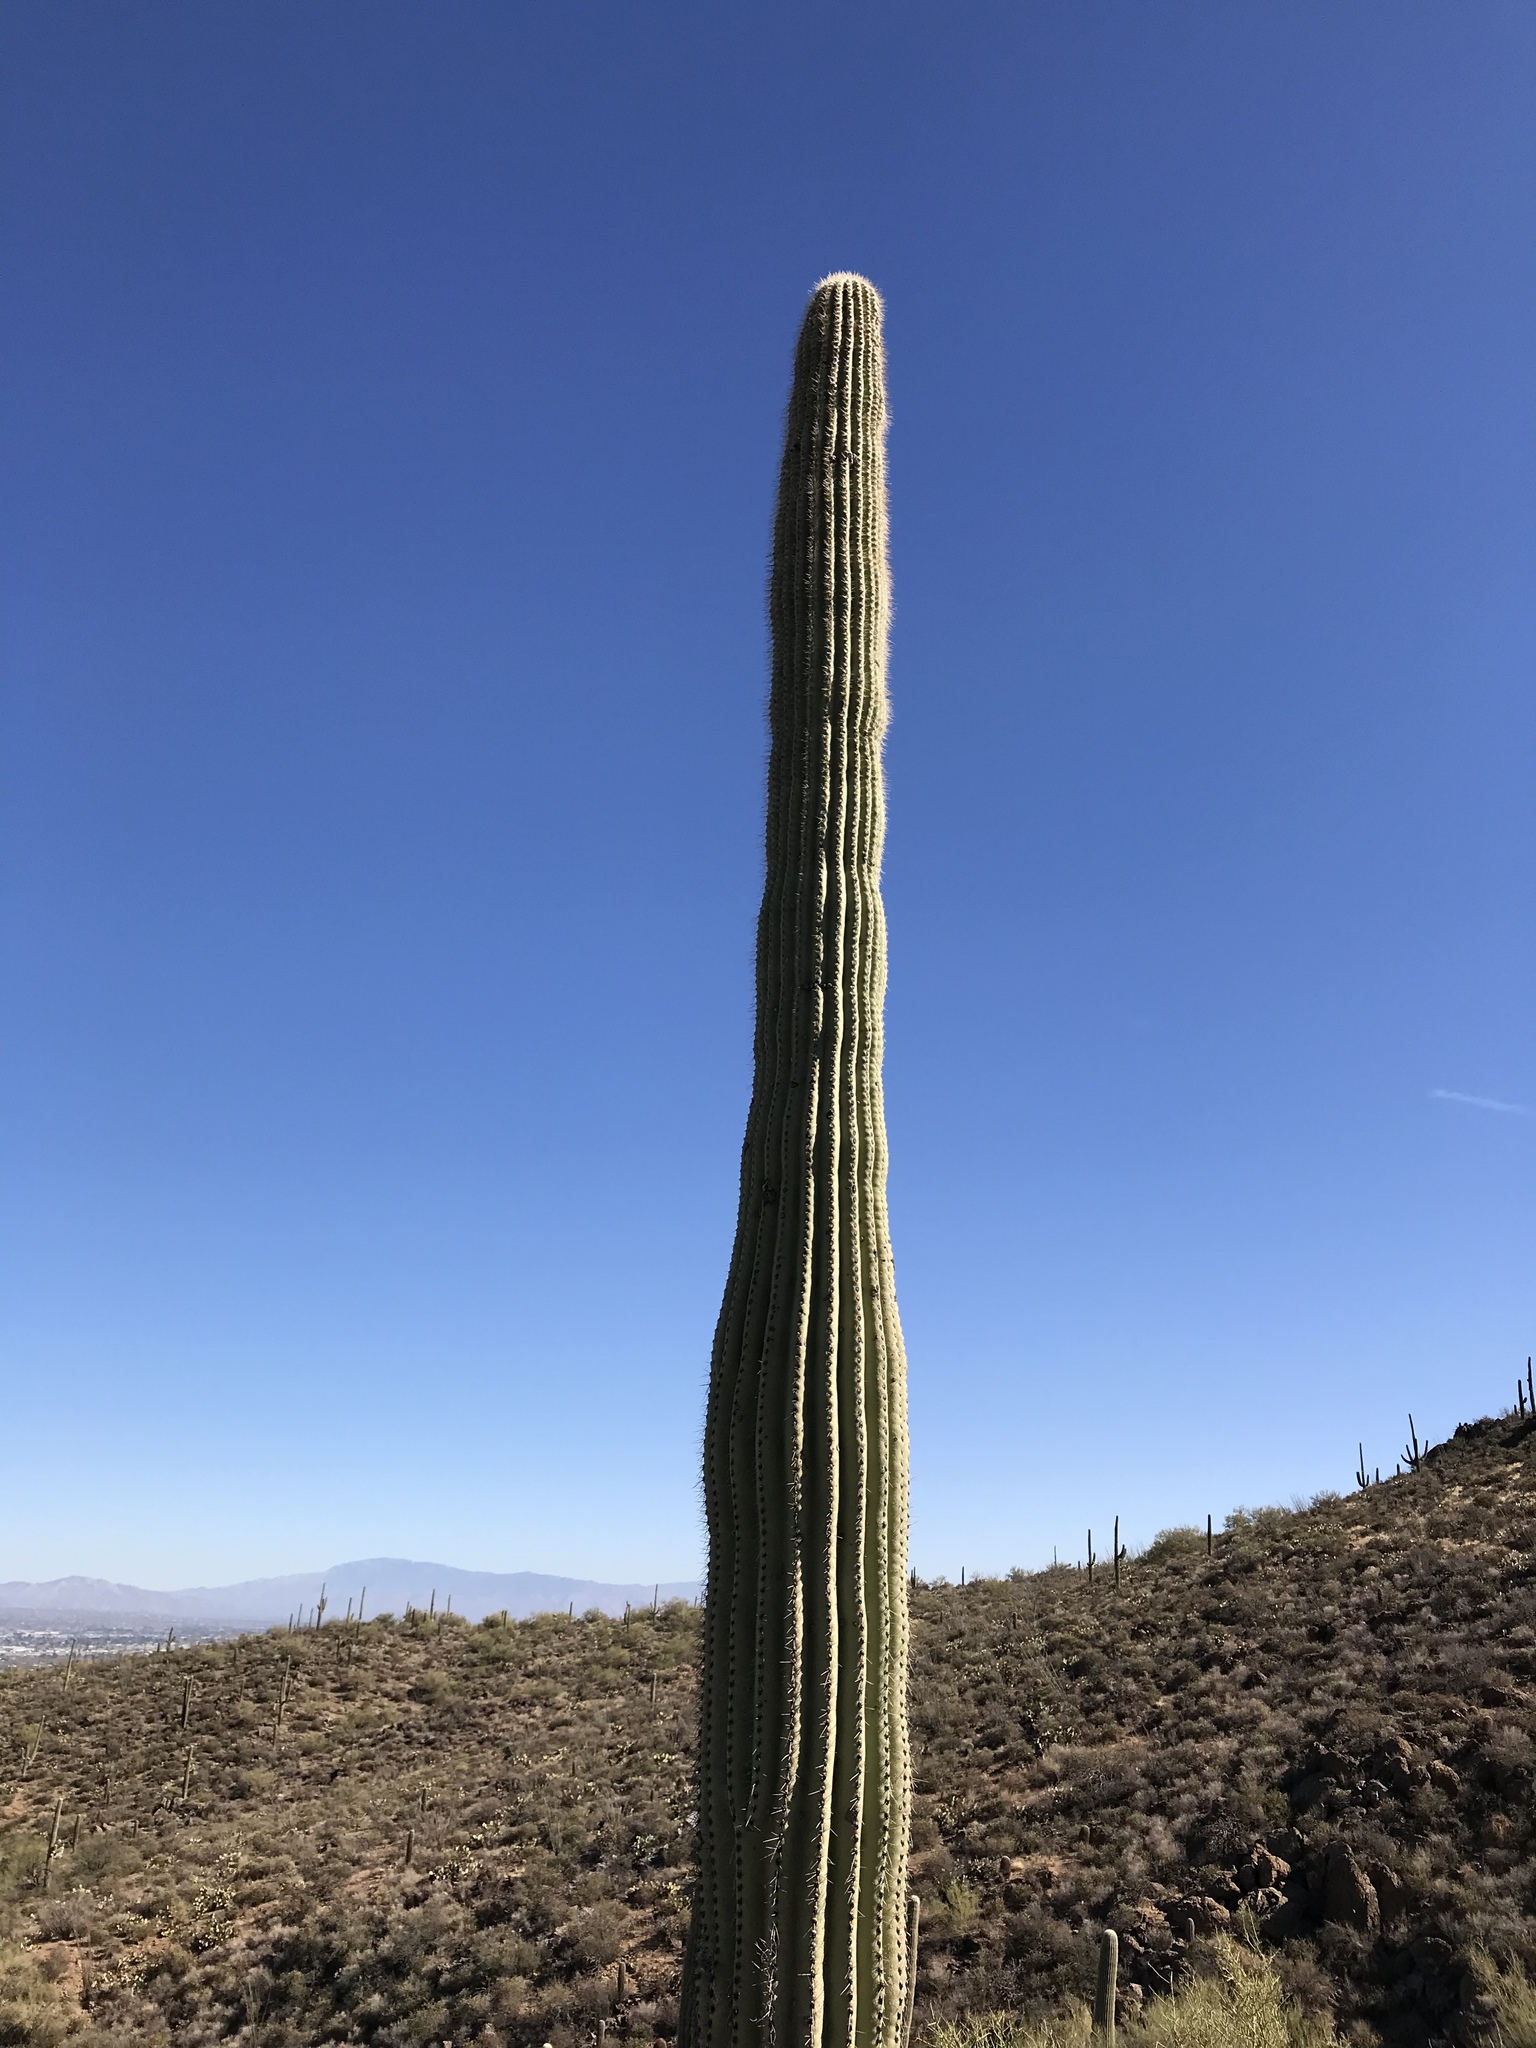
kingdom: Plantae
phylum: Tracheophyta
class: Magnoliopsida
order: Caryophyllales
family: Cactaceae
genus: Carnegiea
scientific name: Carnegiea gigantea
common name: Saguaro
